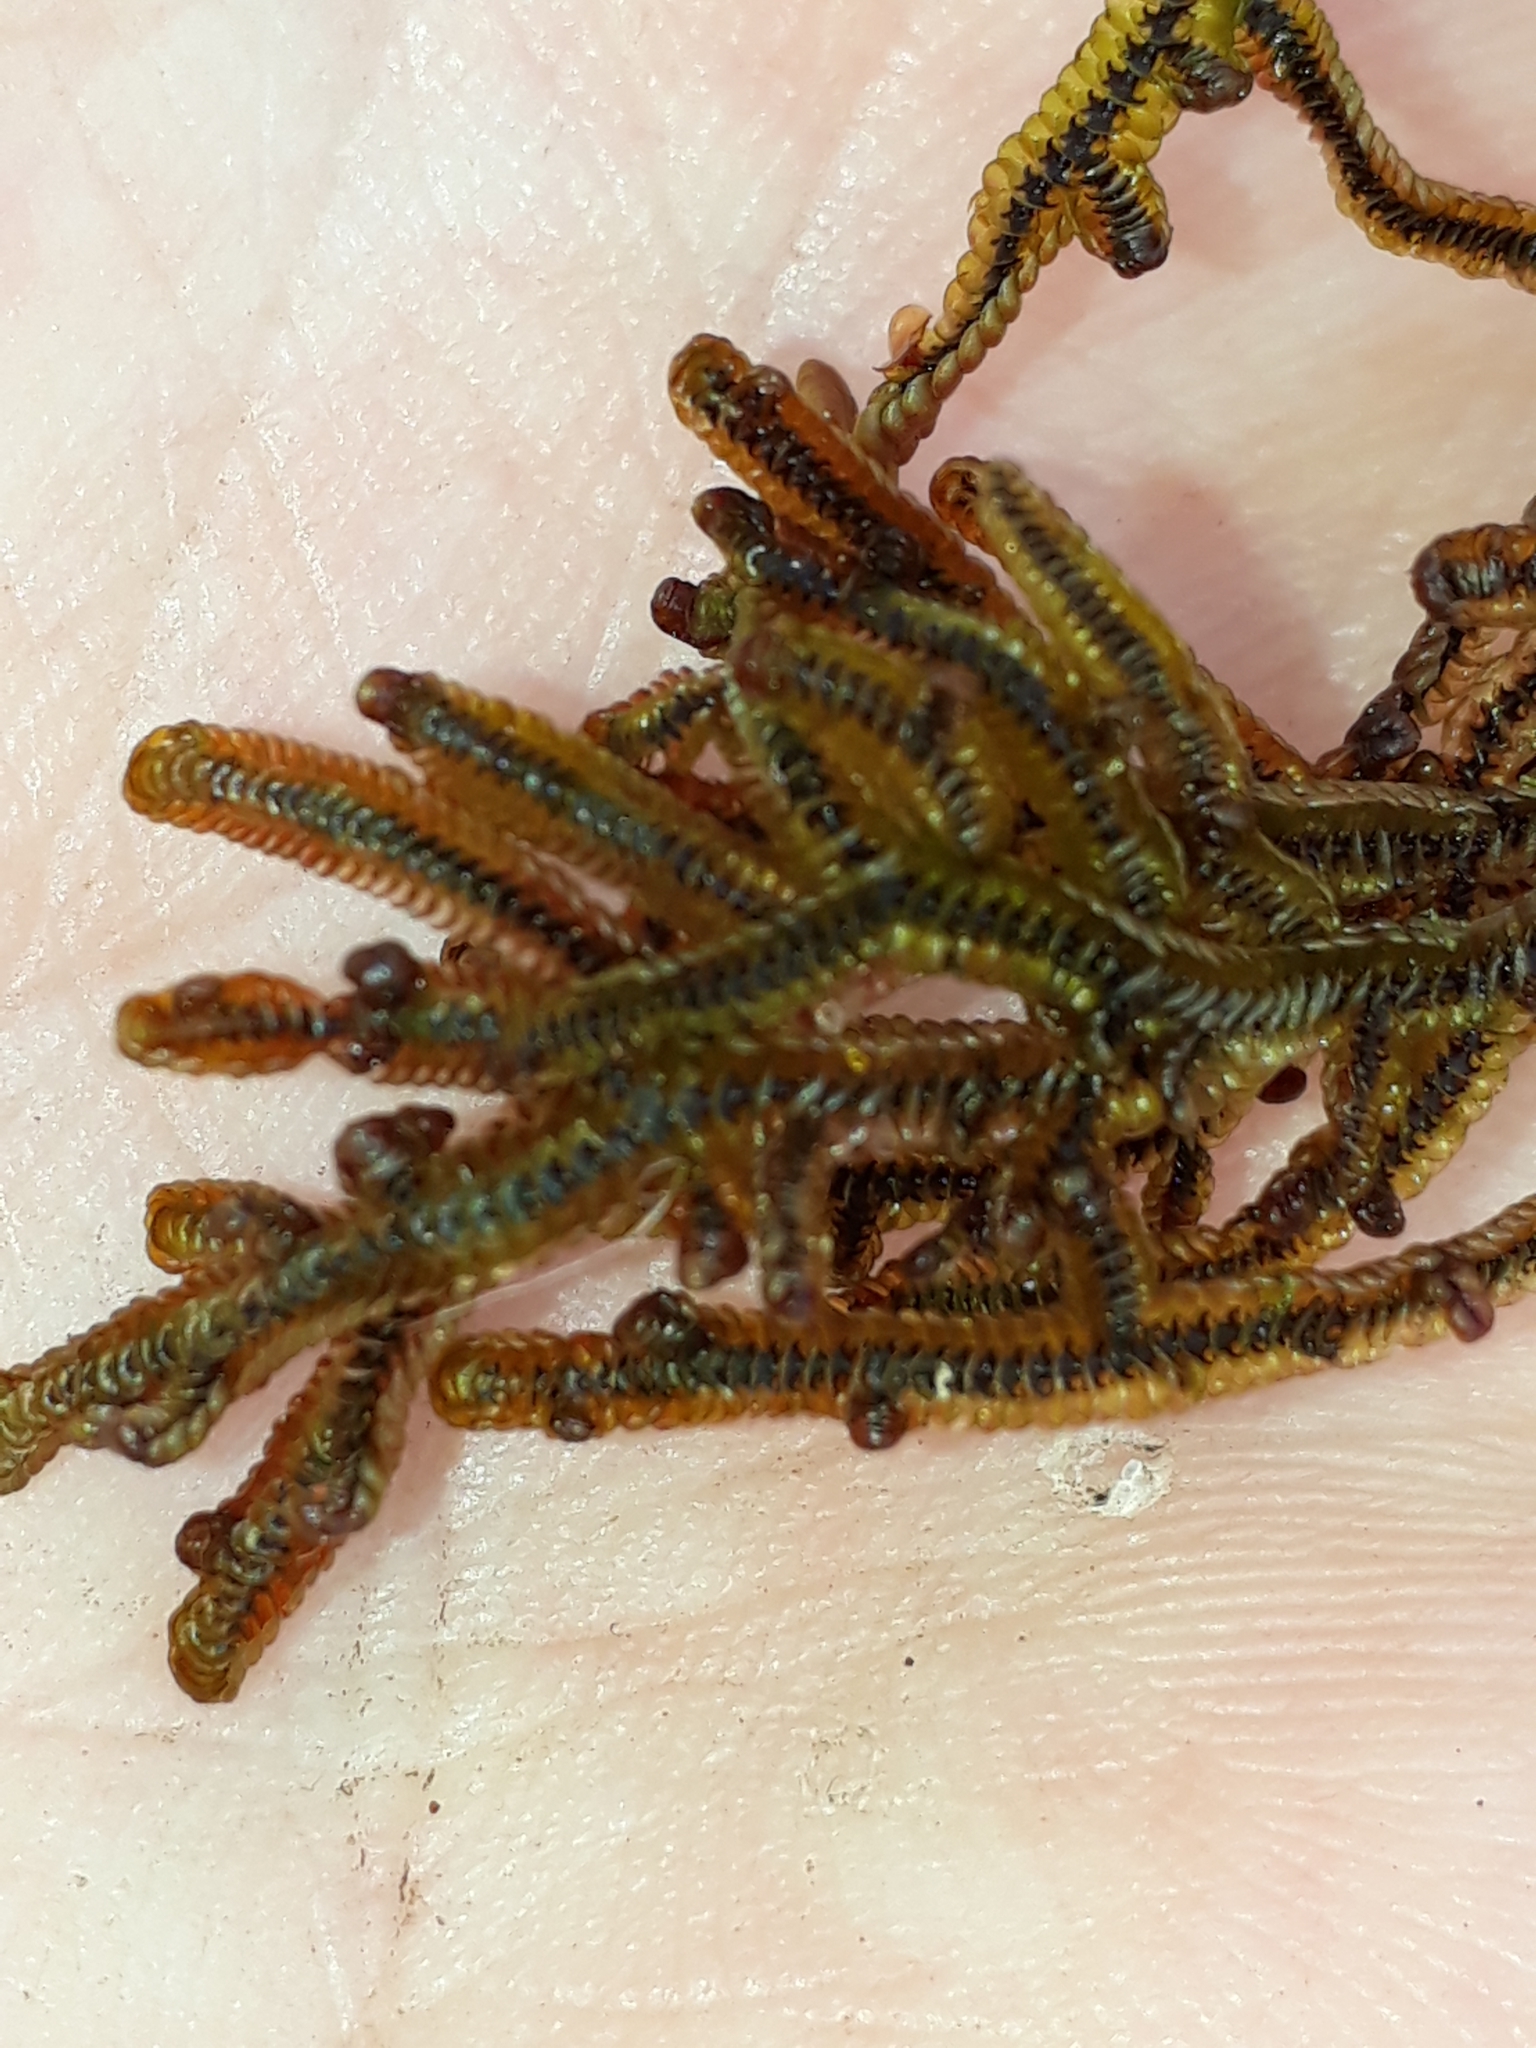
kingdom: Plantae
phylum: Marchantiophyta
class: Jungermanniopsida
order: Porellales
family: Goebeliellaceae
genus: Goebeliella
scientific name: Goebeliella cornigera
